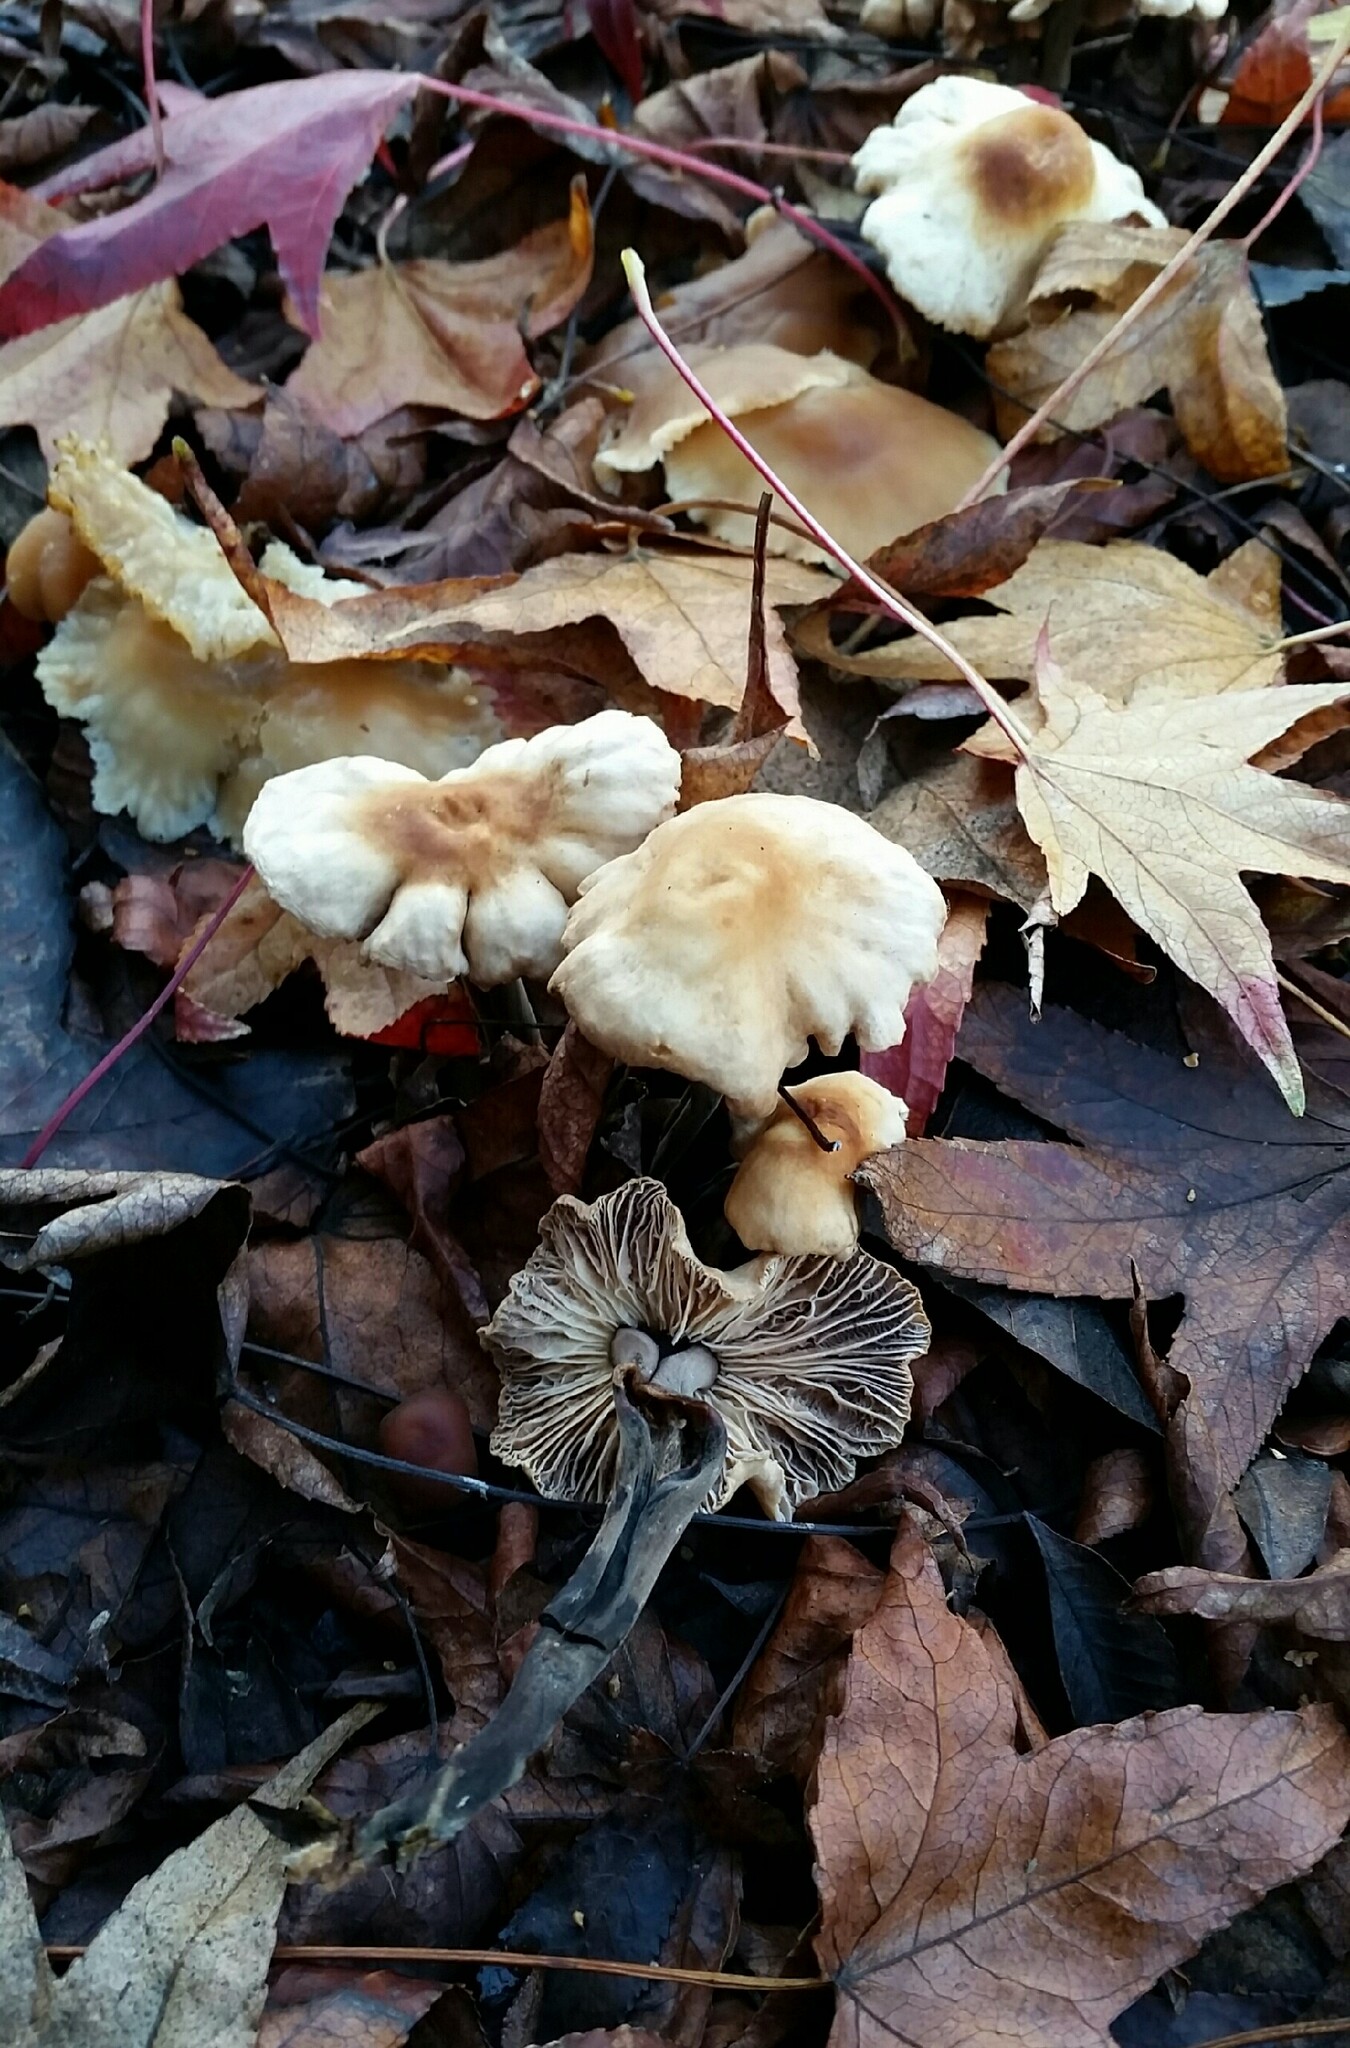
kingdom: Fungi
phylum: Basidiomycota
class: Agaricomycetes
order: Agaricales
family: Omphalotaceae
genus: Gymnopus
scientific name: Gymnopus brassicolens
